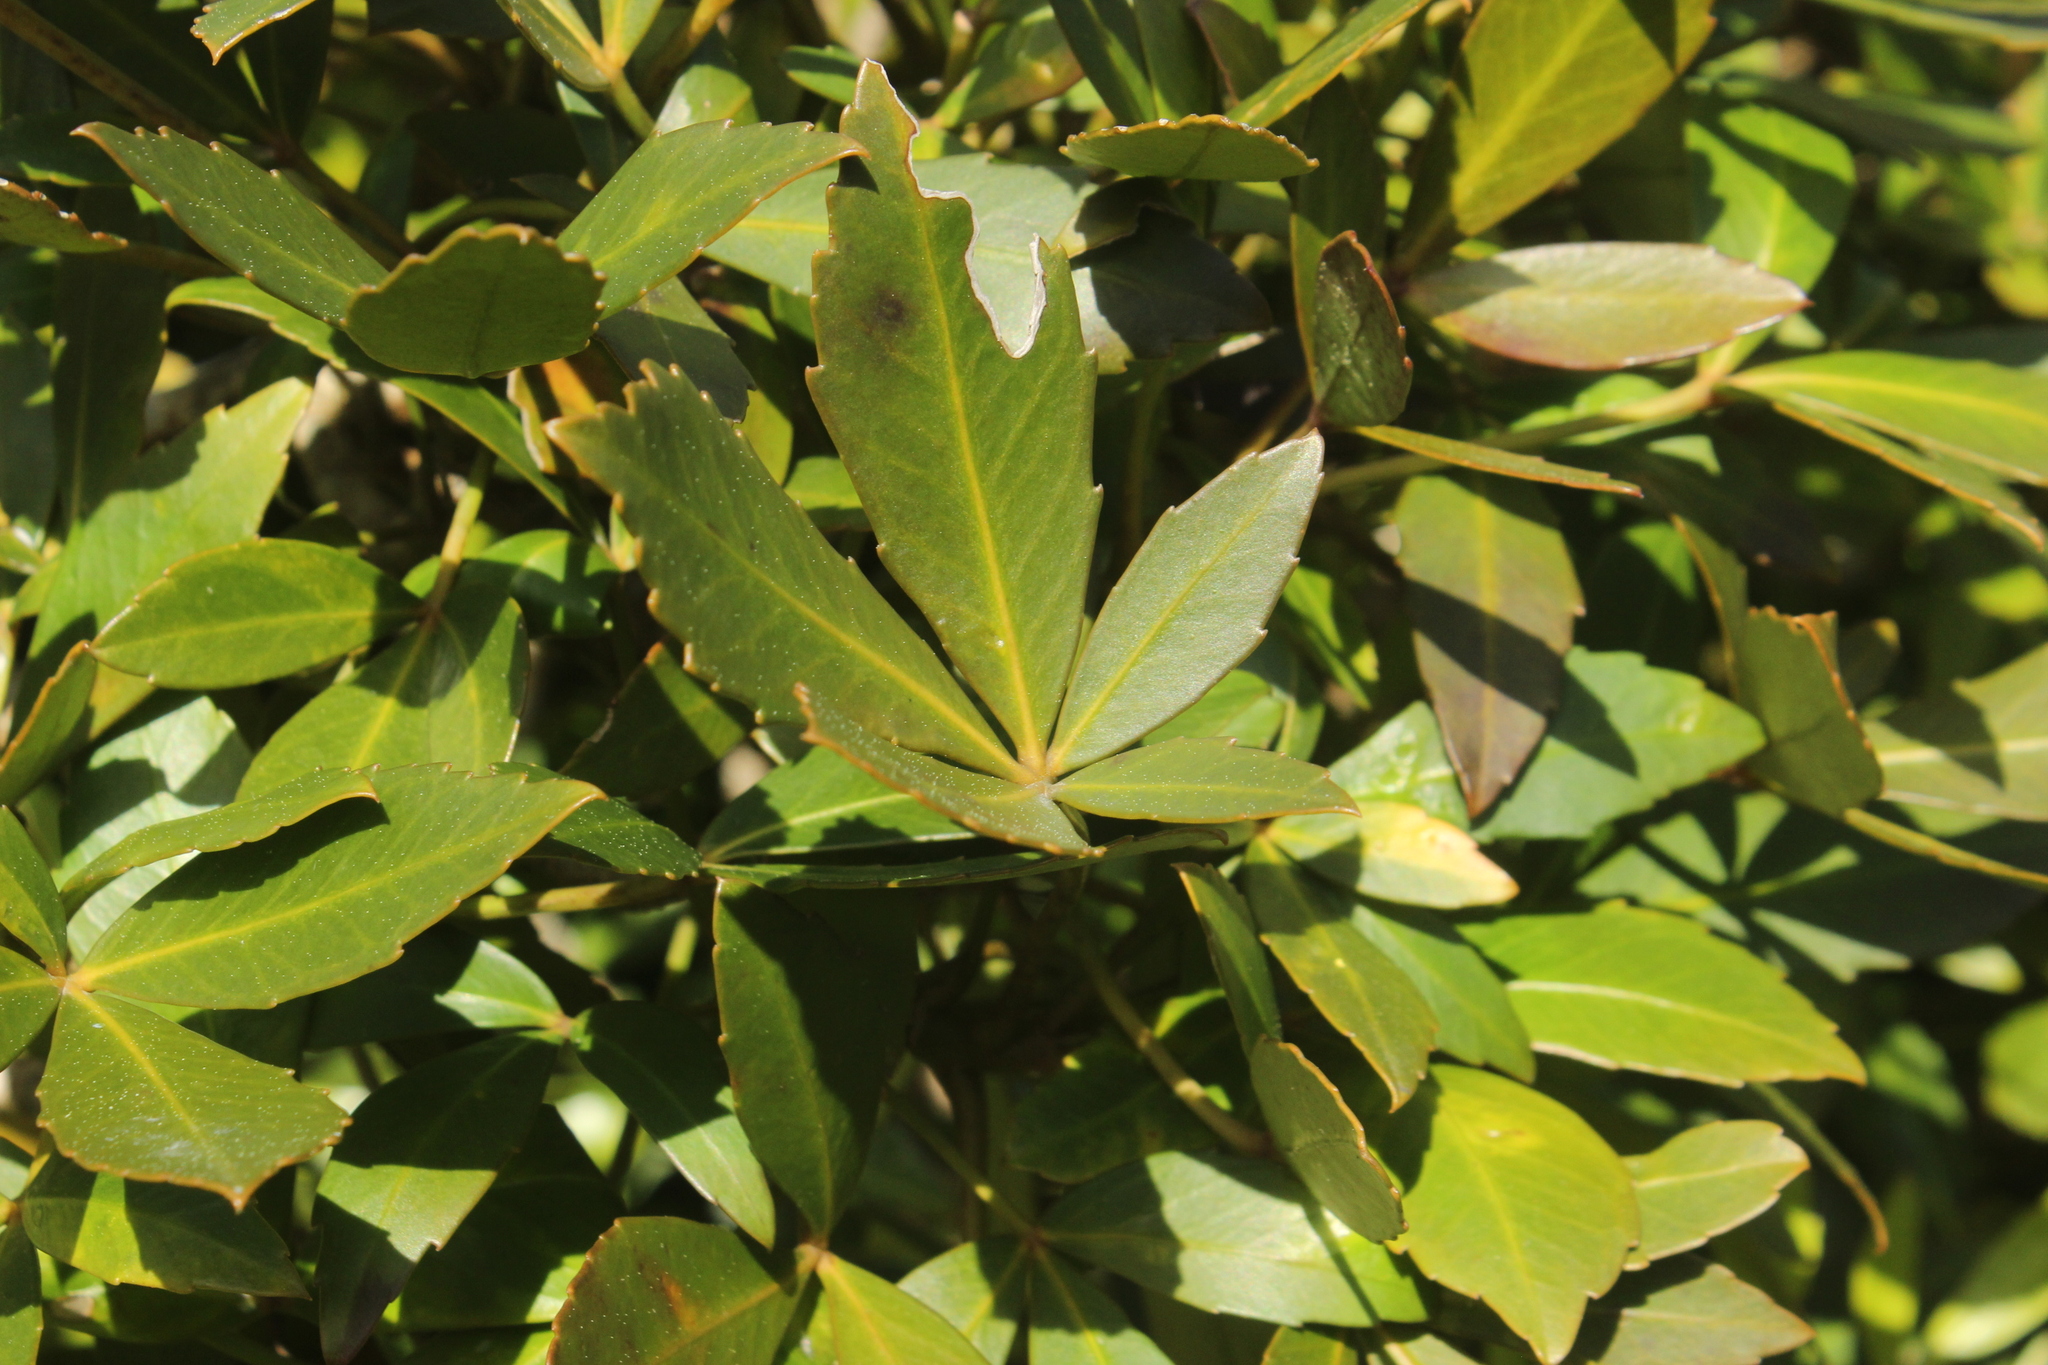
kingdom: Plantae
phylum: Tracheophyta
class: Magnoliopsida
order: Apiales
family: Araliaceae
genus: Pseudopanax
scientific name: Pseudopanax lessonii
